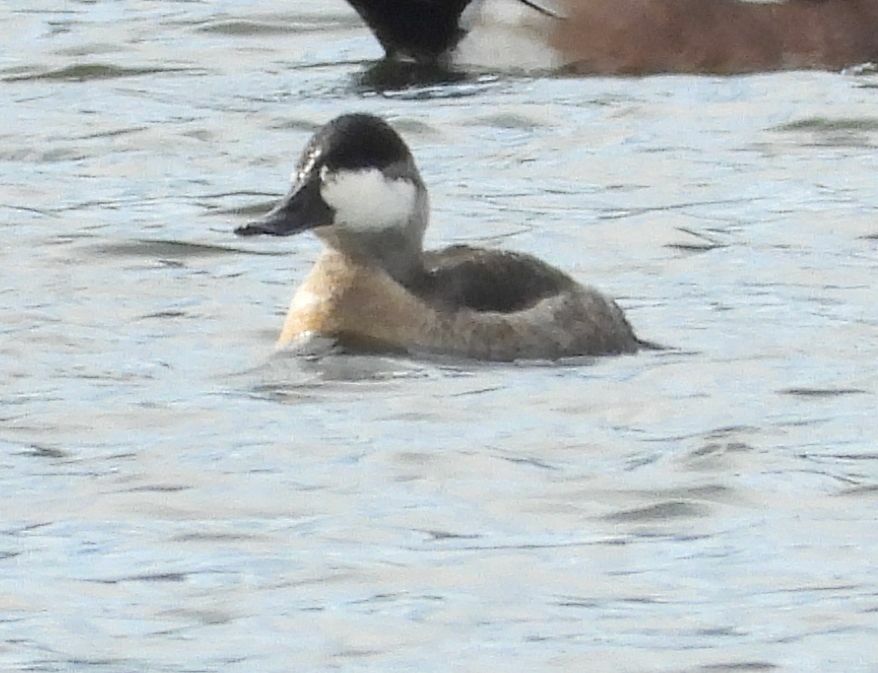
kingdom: Animalia
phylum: Chordata
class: Aves
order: Anseriformes
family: Anatidae
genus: Oxyura
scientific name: Oxyura jamaicensis
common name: Ruddy duck
